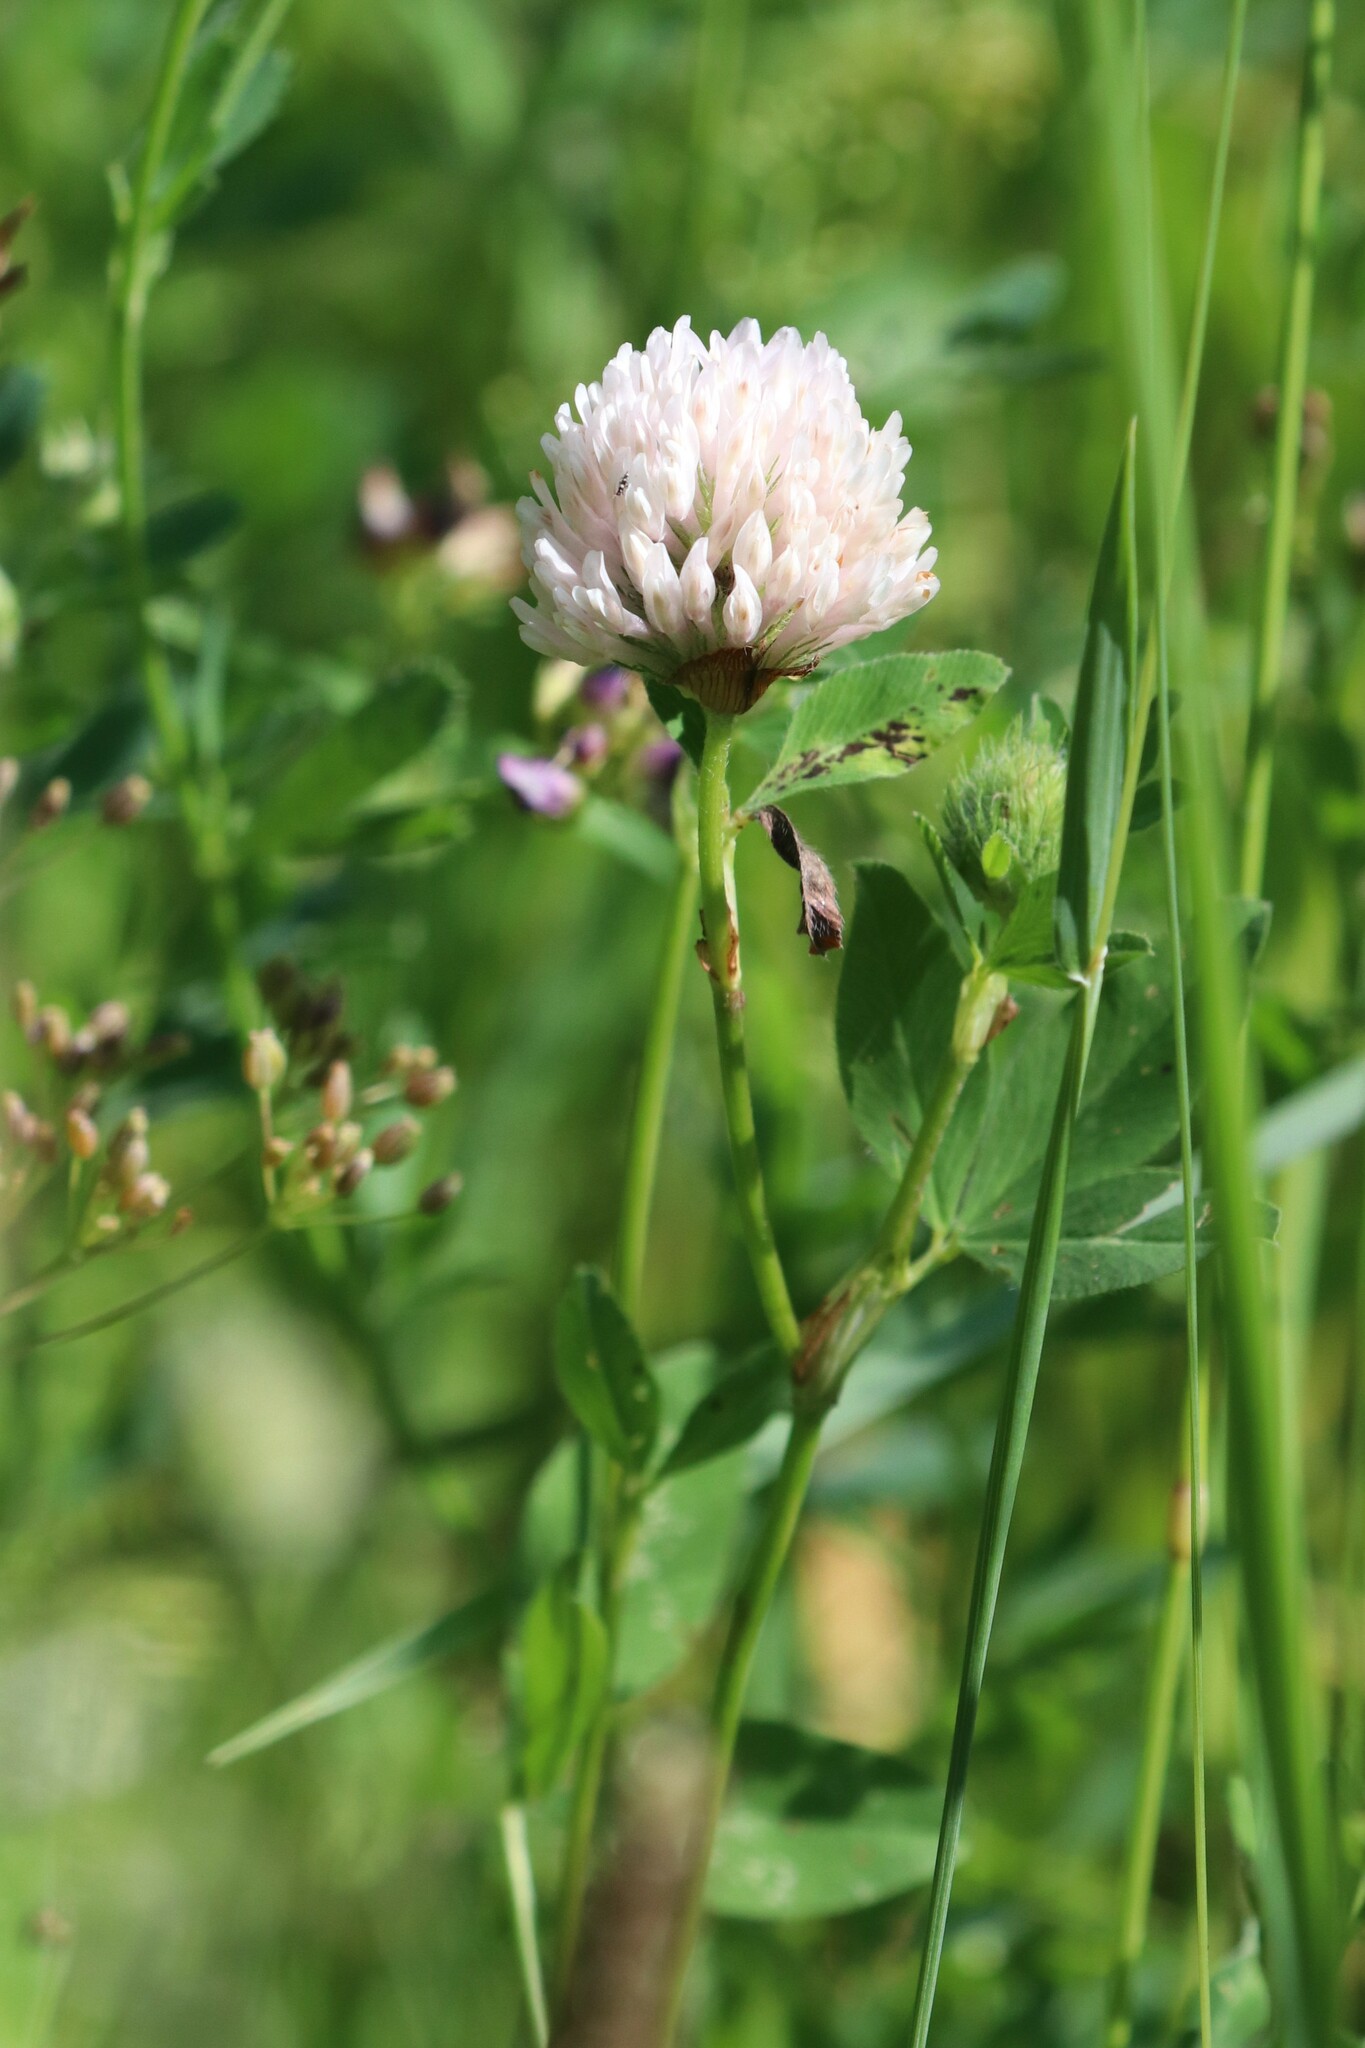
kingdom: Plantae
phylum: Tracheophyta
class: Magnoliopsida
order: Fabales
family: Fabaceae
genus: Trifolium
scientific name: Trifolium hybridum
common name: Alsike clover
